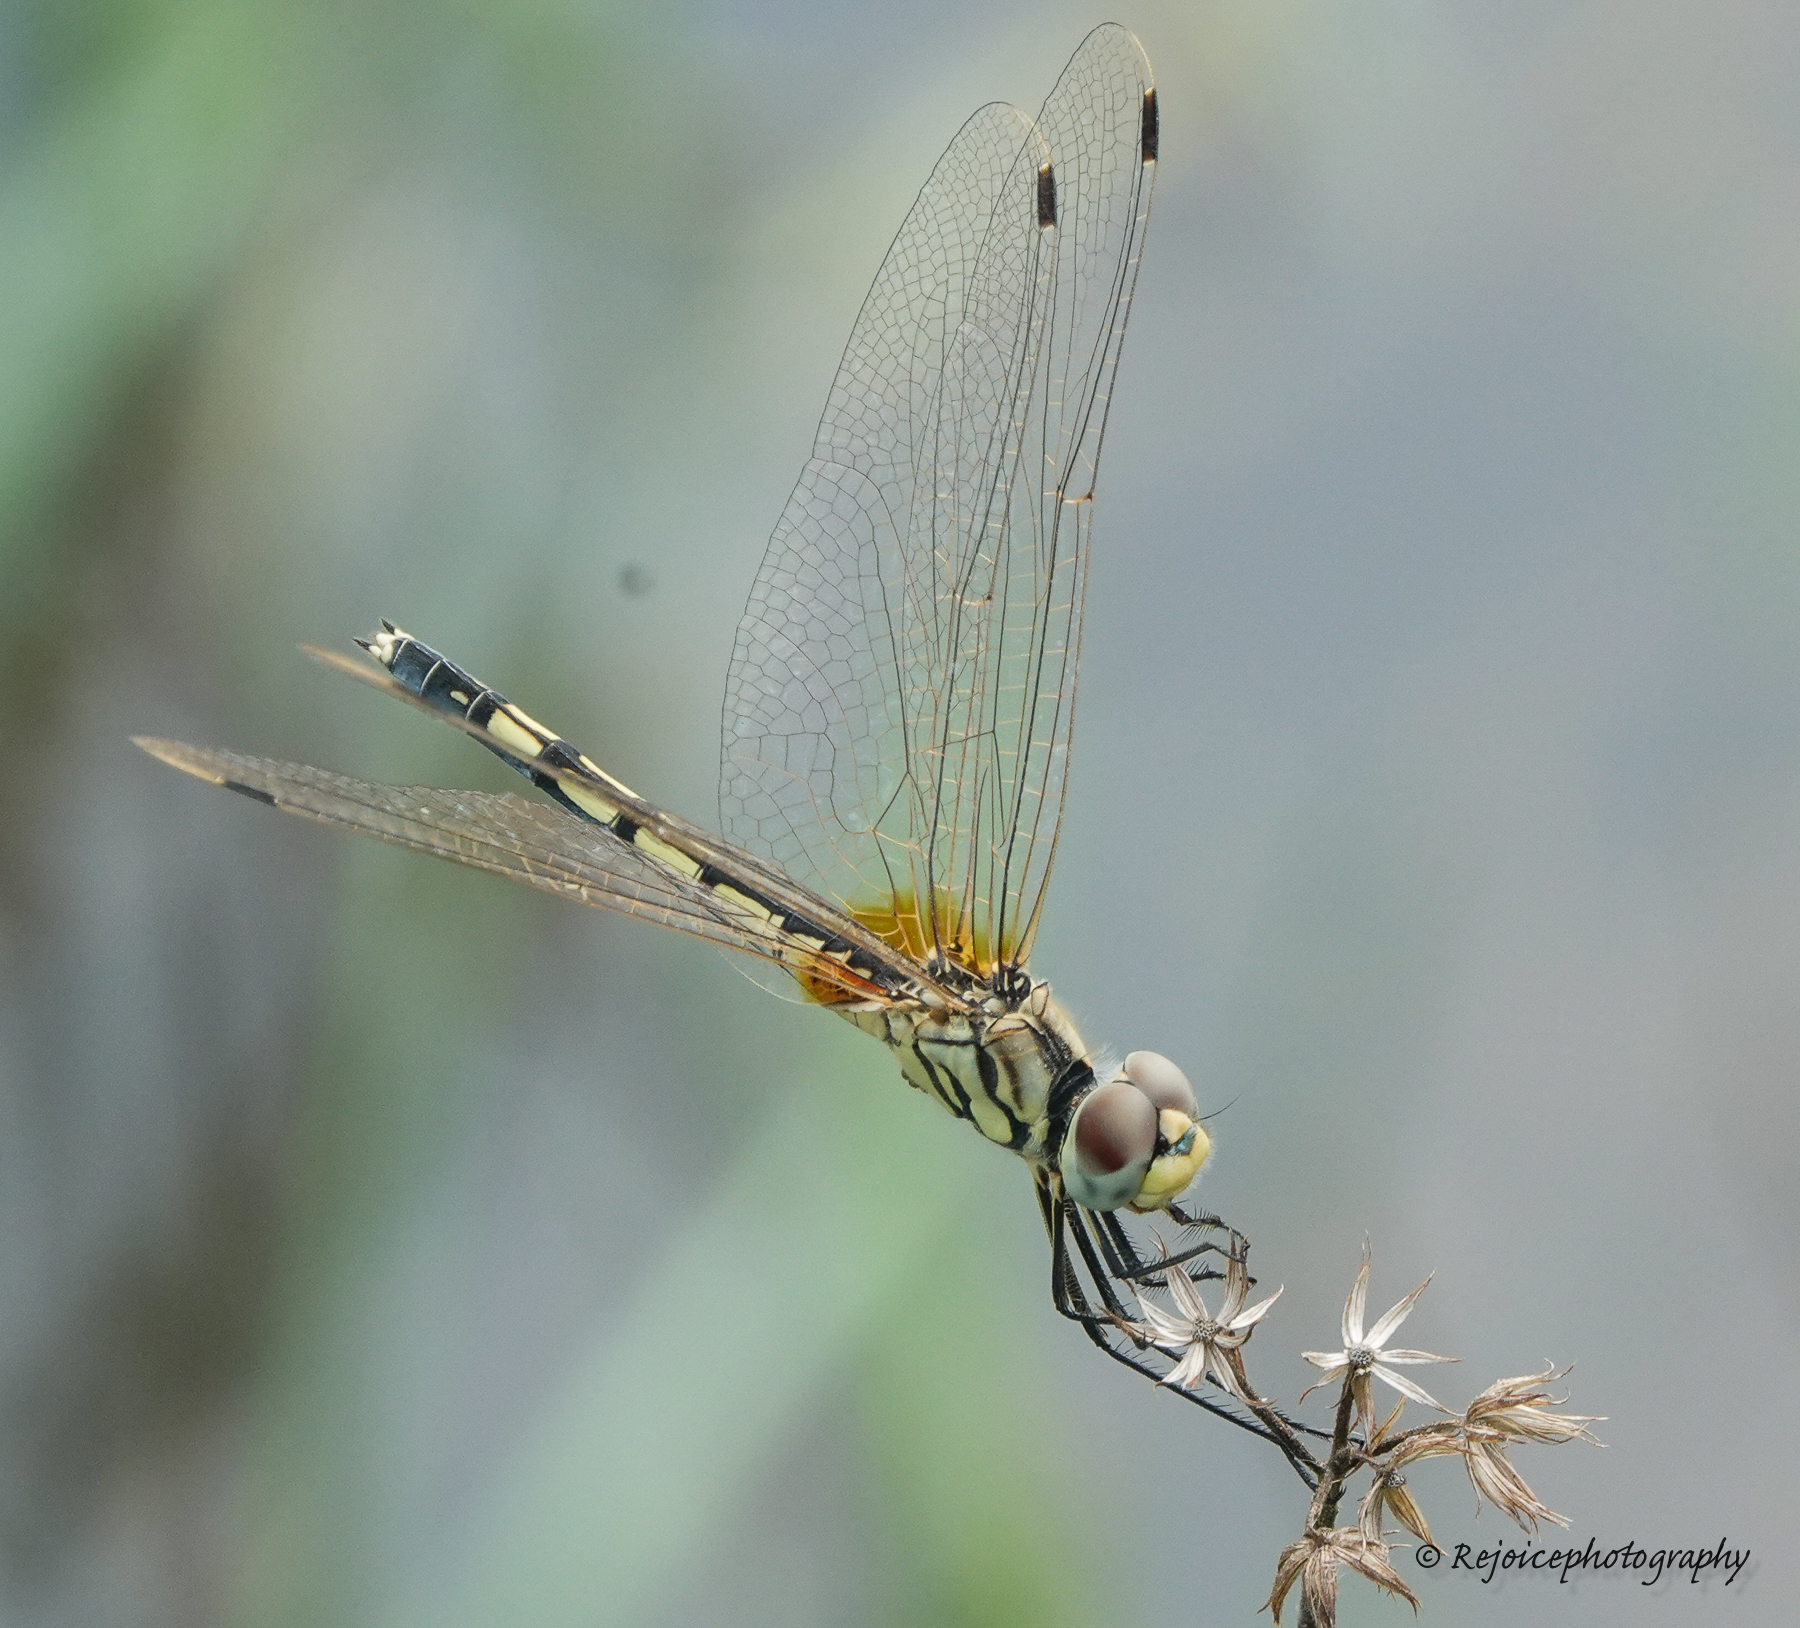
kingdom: Animalia
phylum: Arthropoda
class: Insecta
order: Odonata
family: Libellulidae
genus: Trithemis
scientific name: Trithemis pallidinervis
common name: Dancing dropwing
